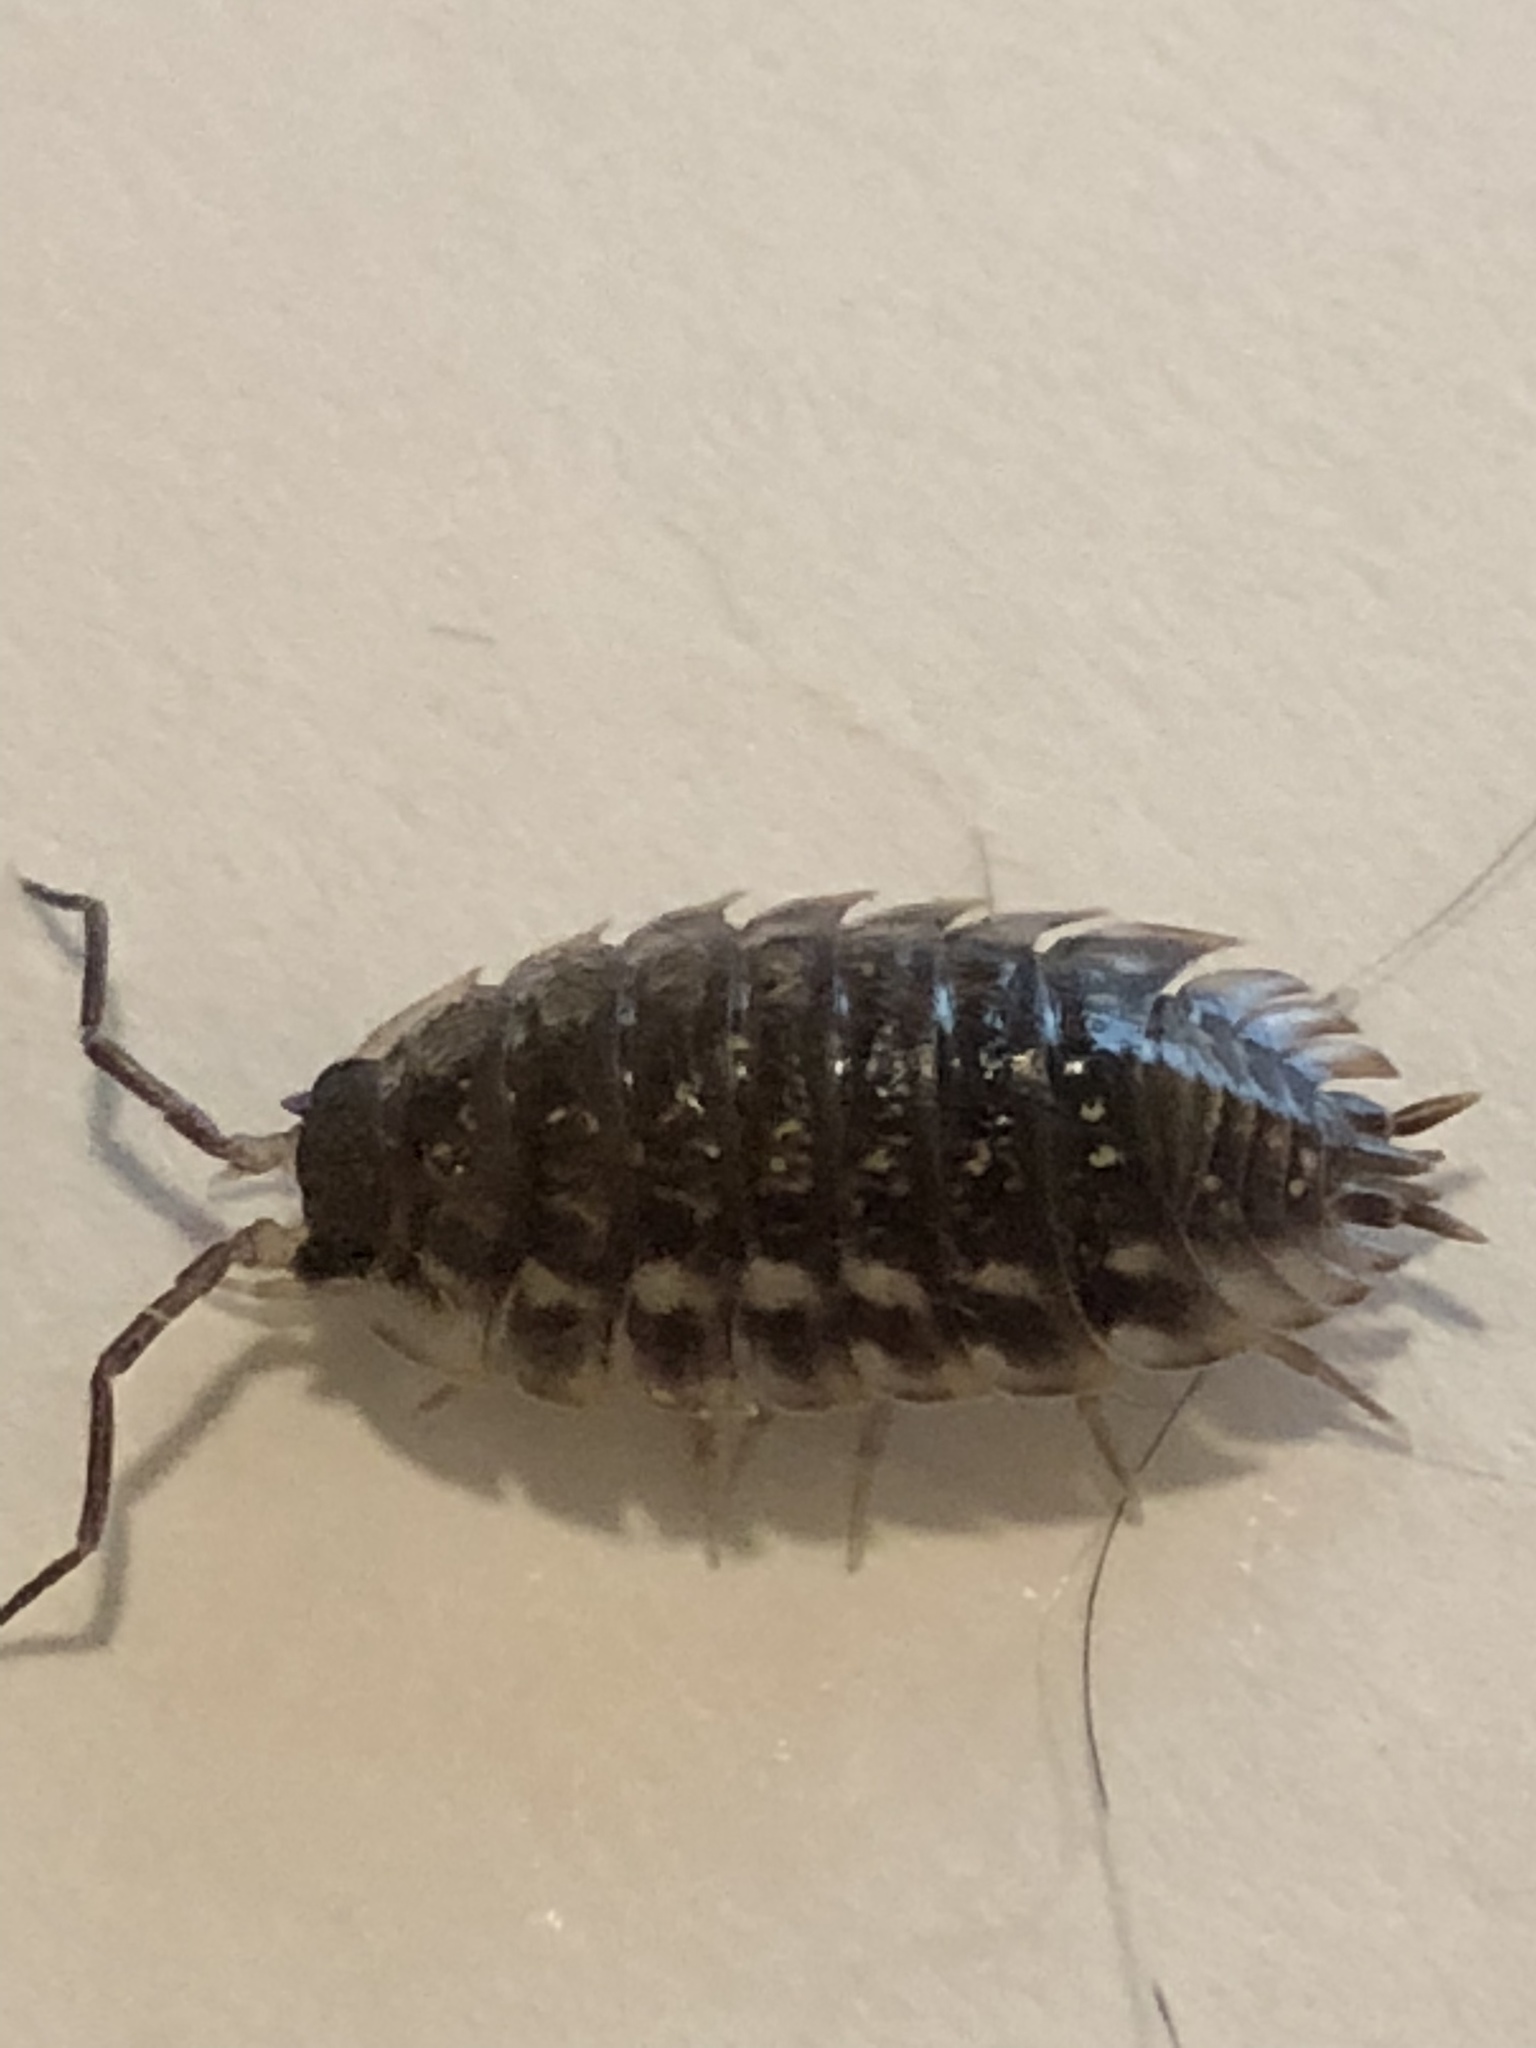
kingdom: Animalia
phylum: Arthropoda
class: Malacostraca
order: Isopoda
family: Oniscidae
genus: Oniscus
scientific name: Oniscus asellus
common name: Common shiny woodlouse
